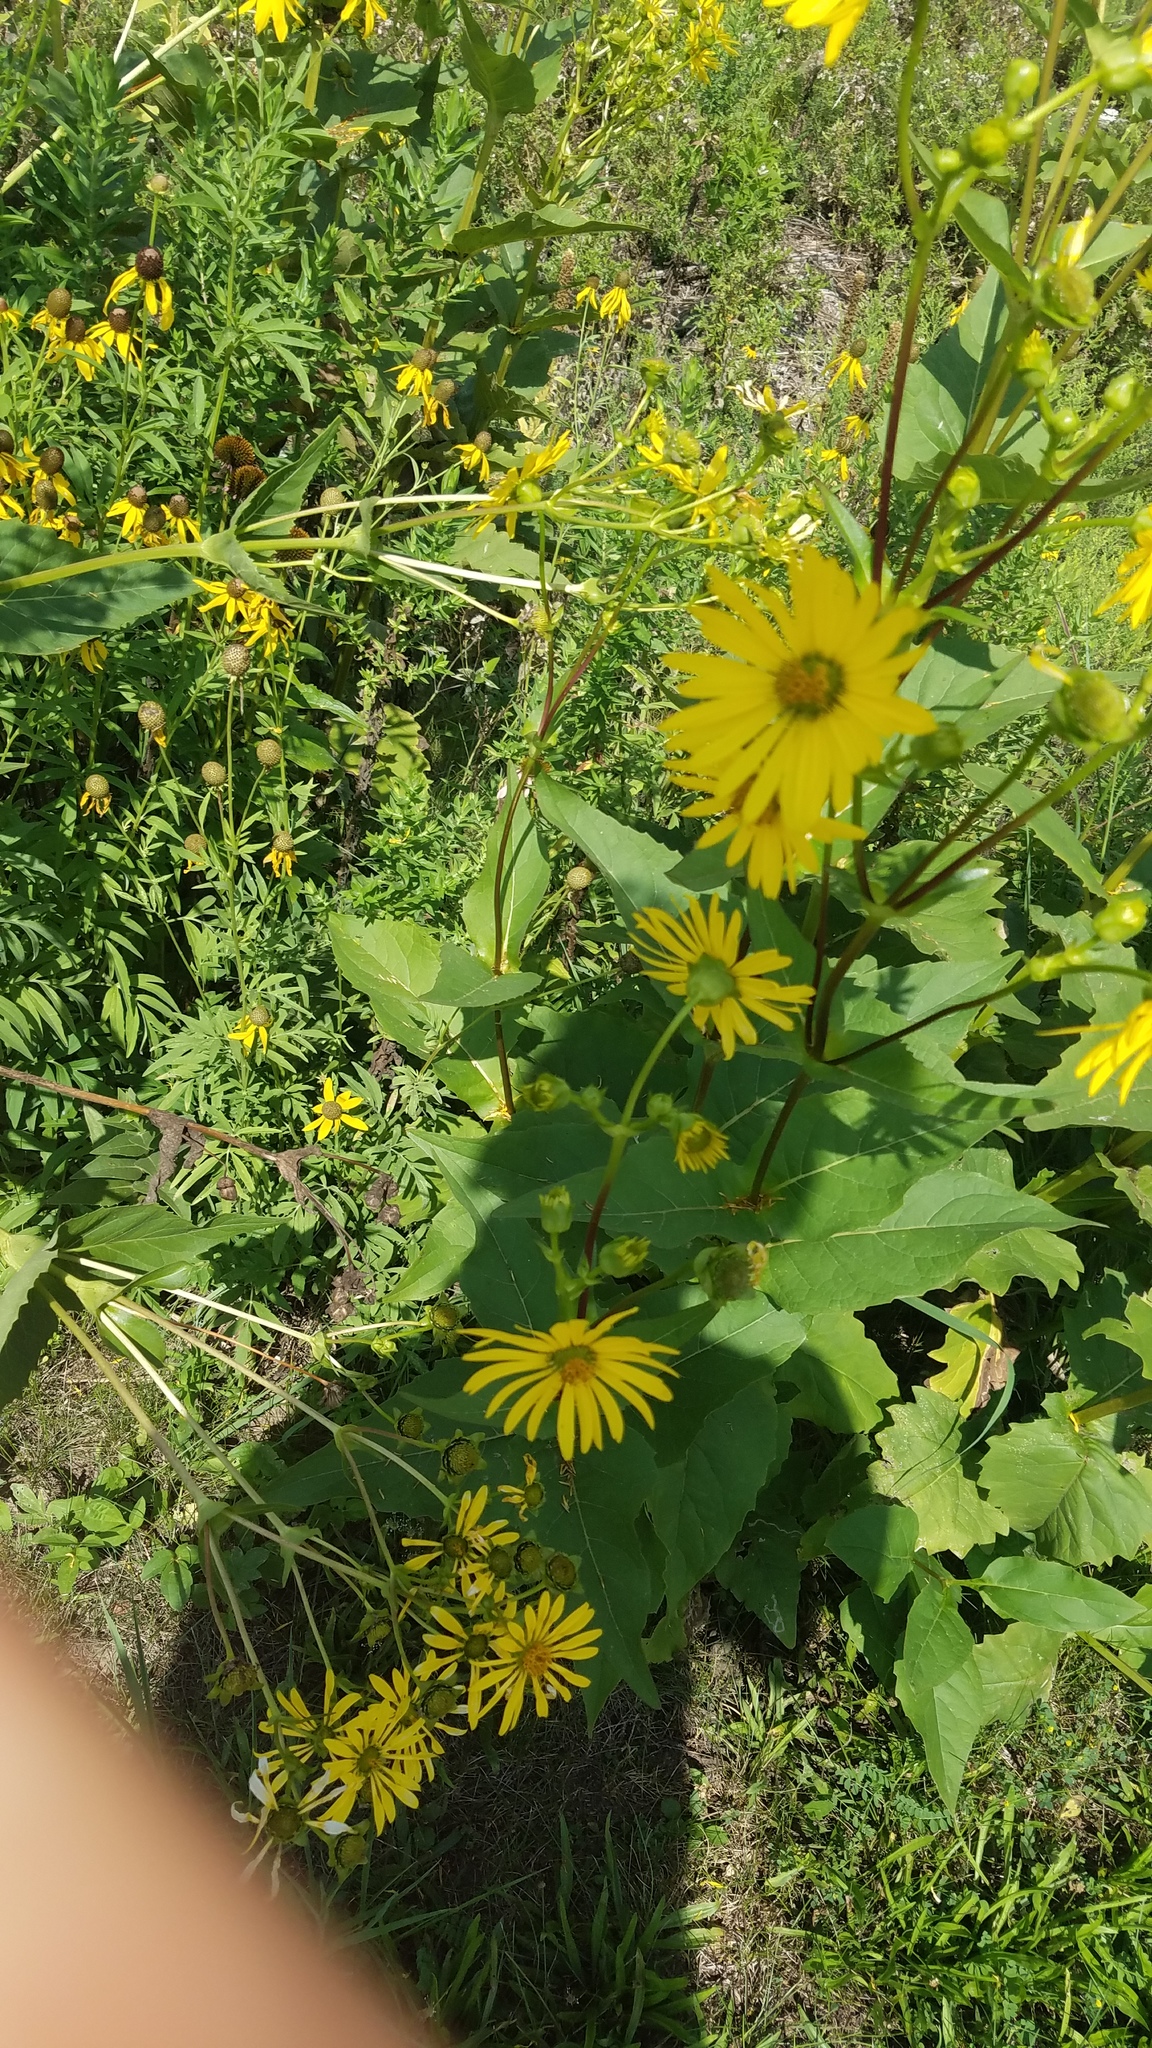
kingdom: Plantae
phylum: Tracheophyta
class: Magnoliopsida
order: Asterales
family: Asteraceae
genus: Silphium
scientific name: Silphium perfoliatum
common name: Cup-plant
